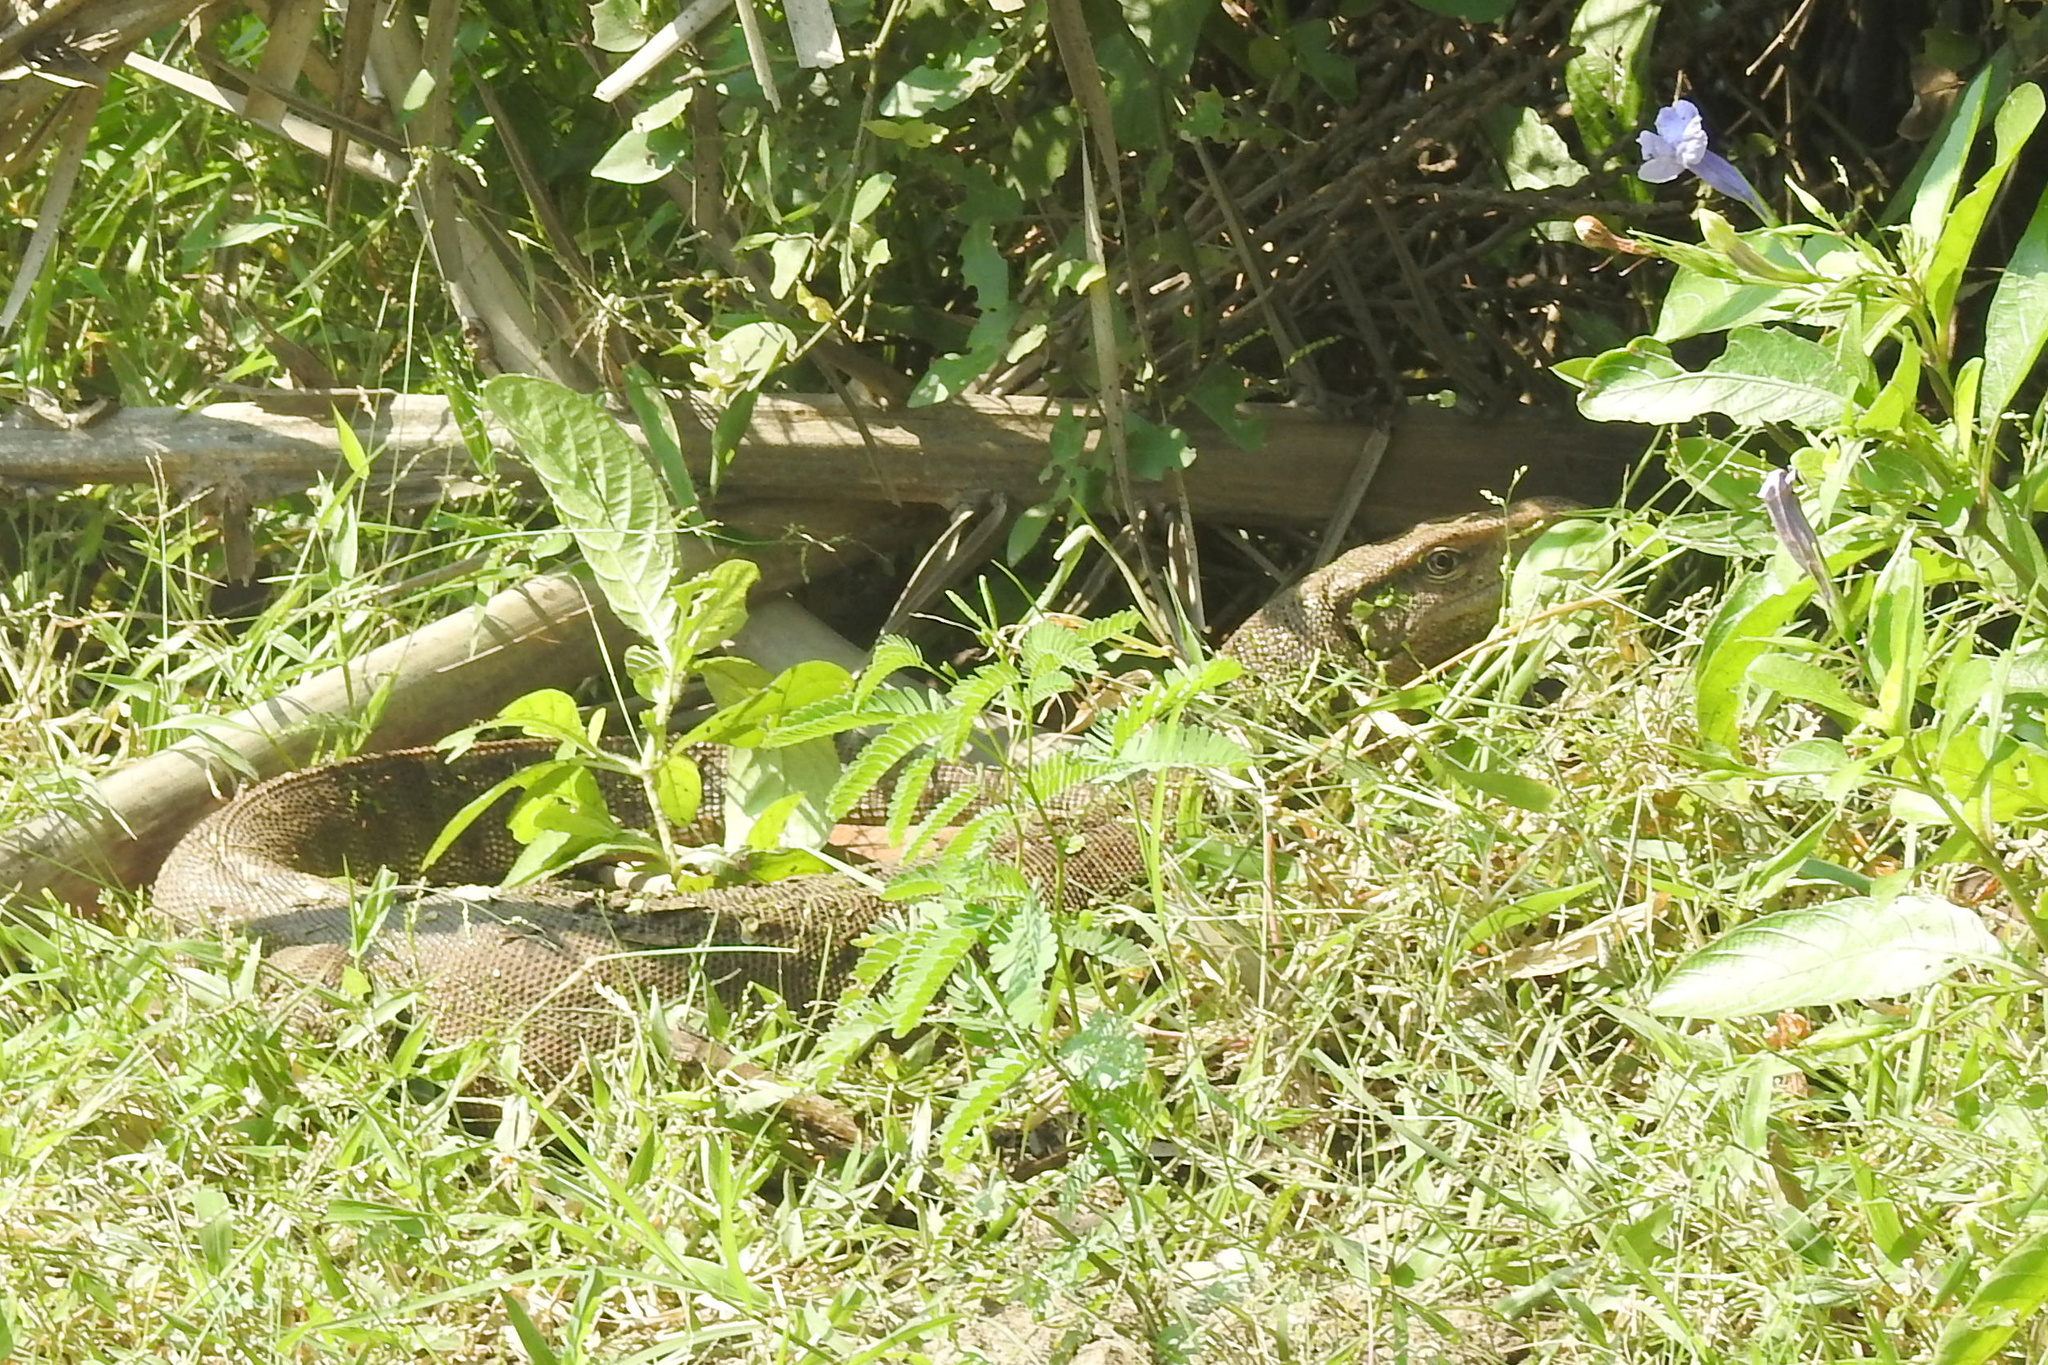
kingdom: Animalia
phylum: Chordata
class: Squamata
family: Varanidae
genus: Varanus
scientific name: Varanus bengalensis
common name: Bengal monitor
